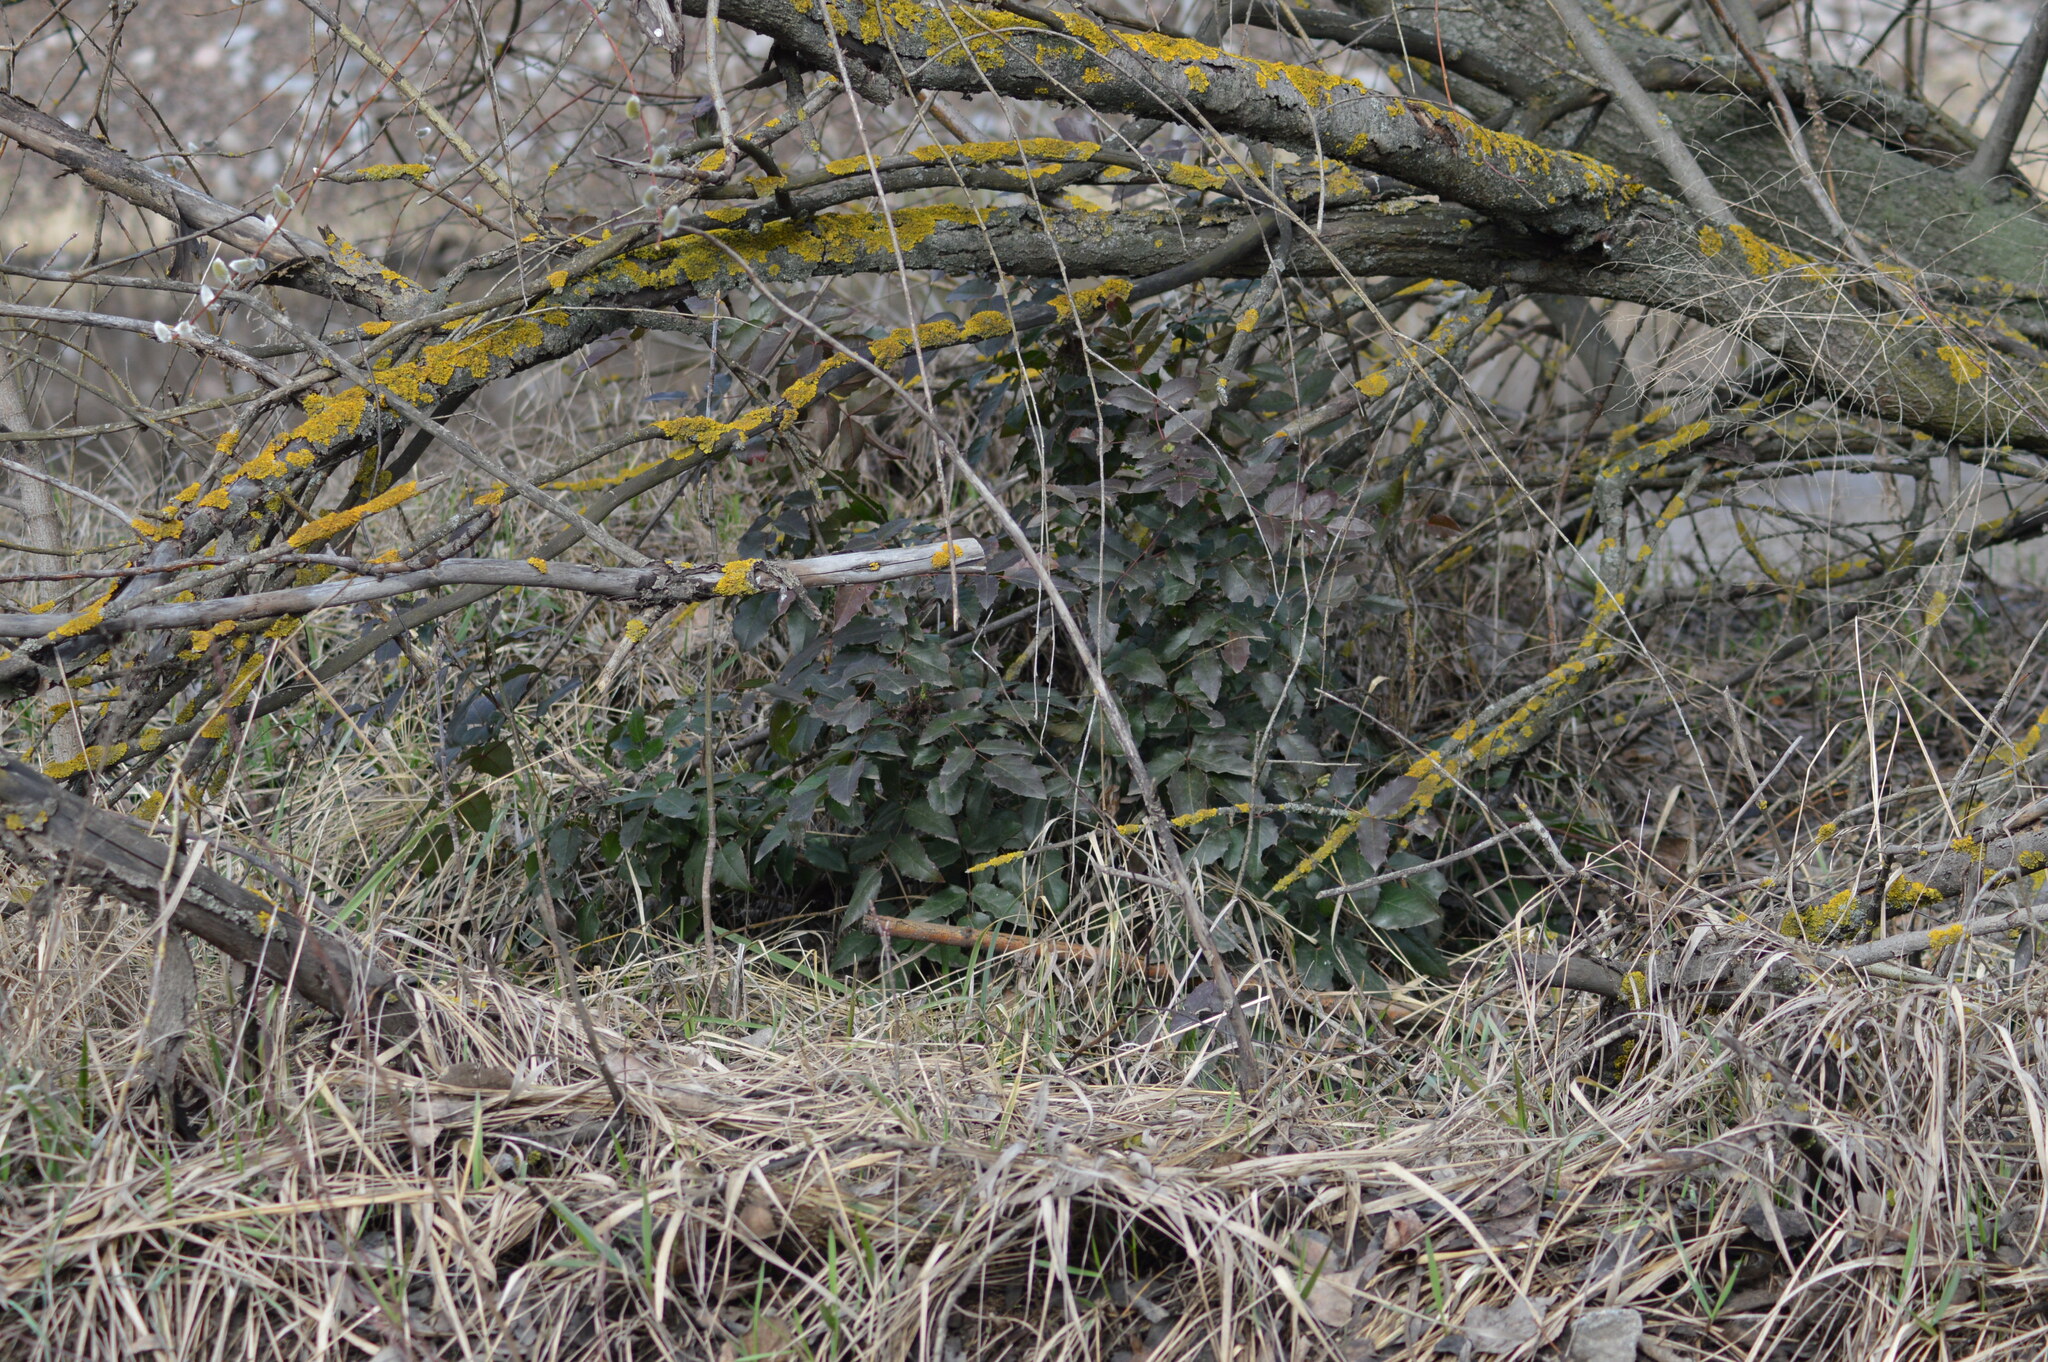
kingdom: Plantae
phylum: Tracheophyta
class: Magnoliopsida
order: Ranunculales
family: Berberidaceae
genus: Mahonia
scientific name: Mahonia aquifolium
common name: Oregon-grape
